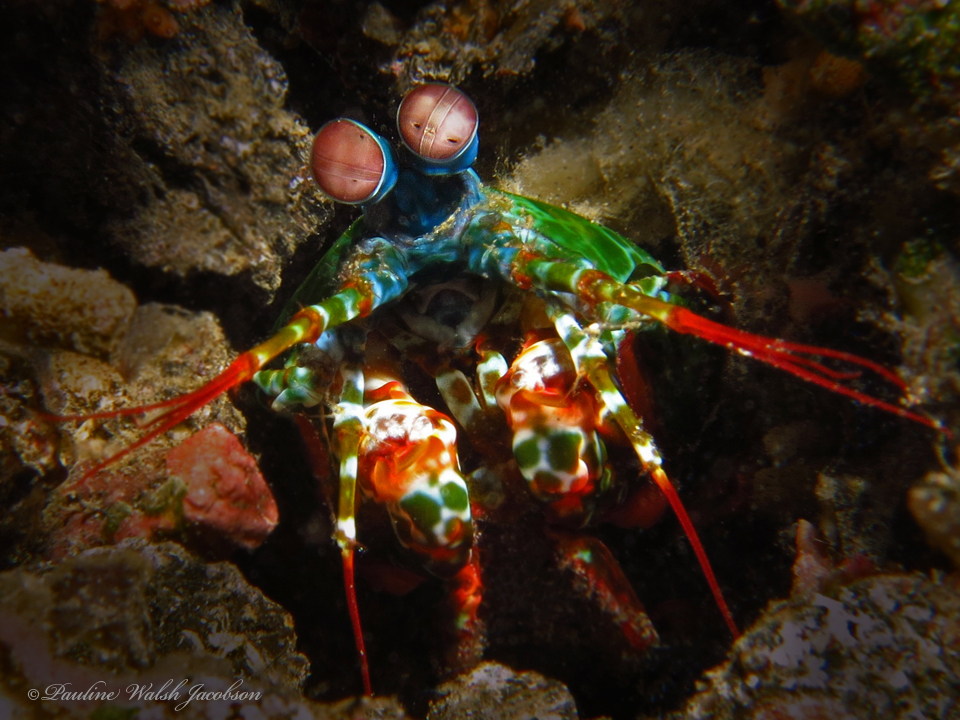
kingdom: Animalia
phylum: Arthropoda
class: Malacostraca
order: Stomatopoda
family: Odontodactylidae
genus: Odontodactylus
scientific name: Odontodactylus scyllarus
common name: Peacock mantis shrimp
